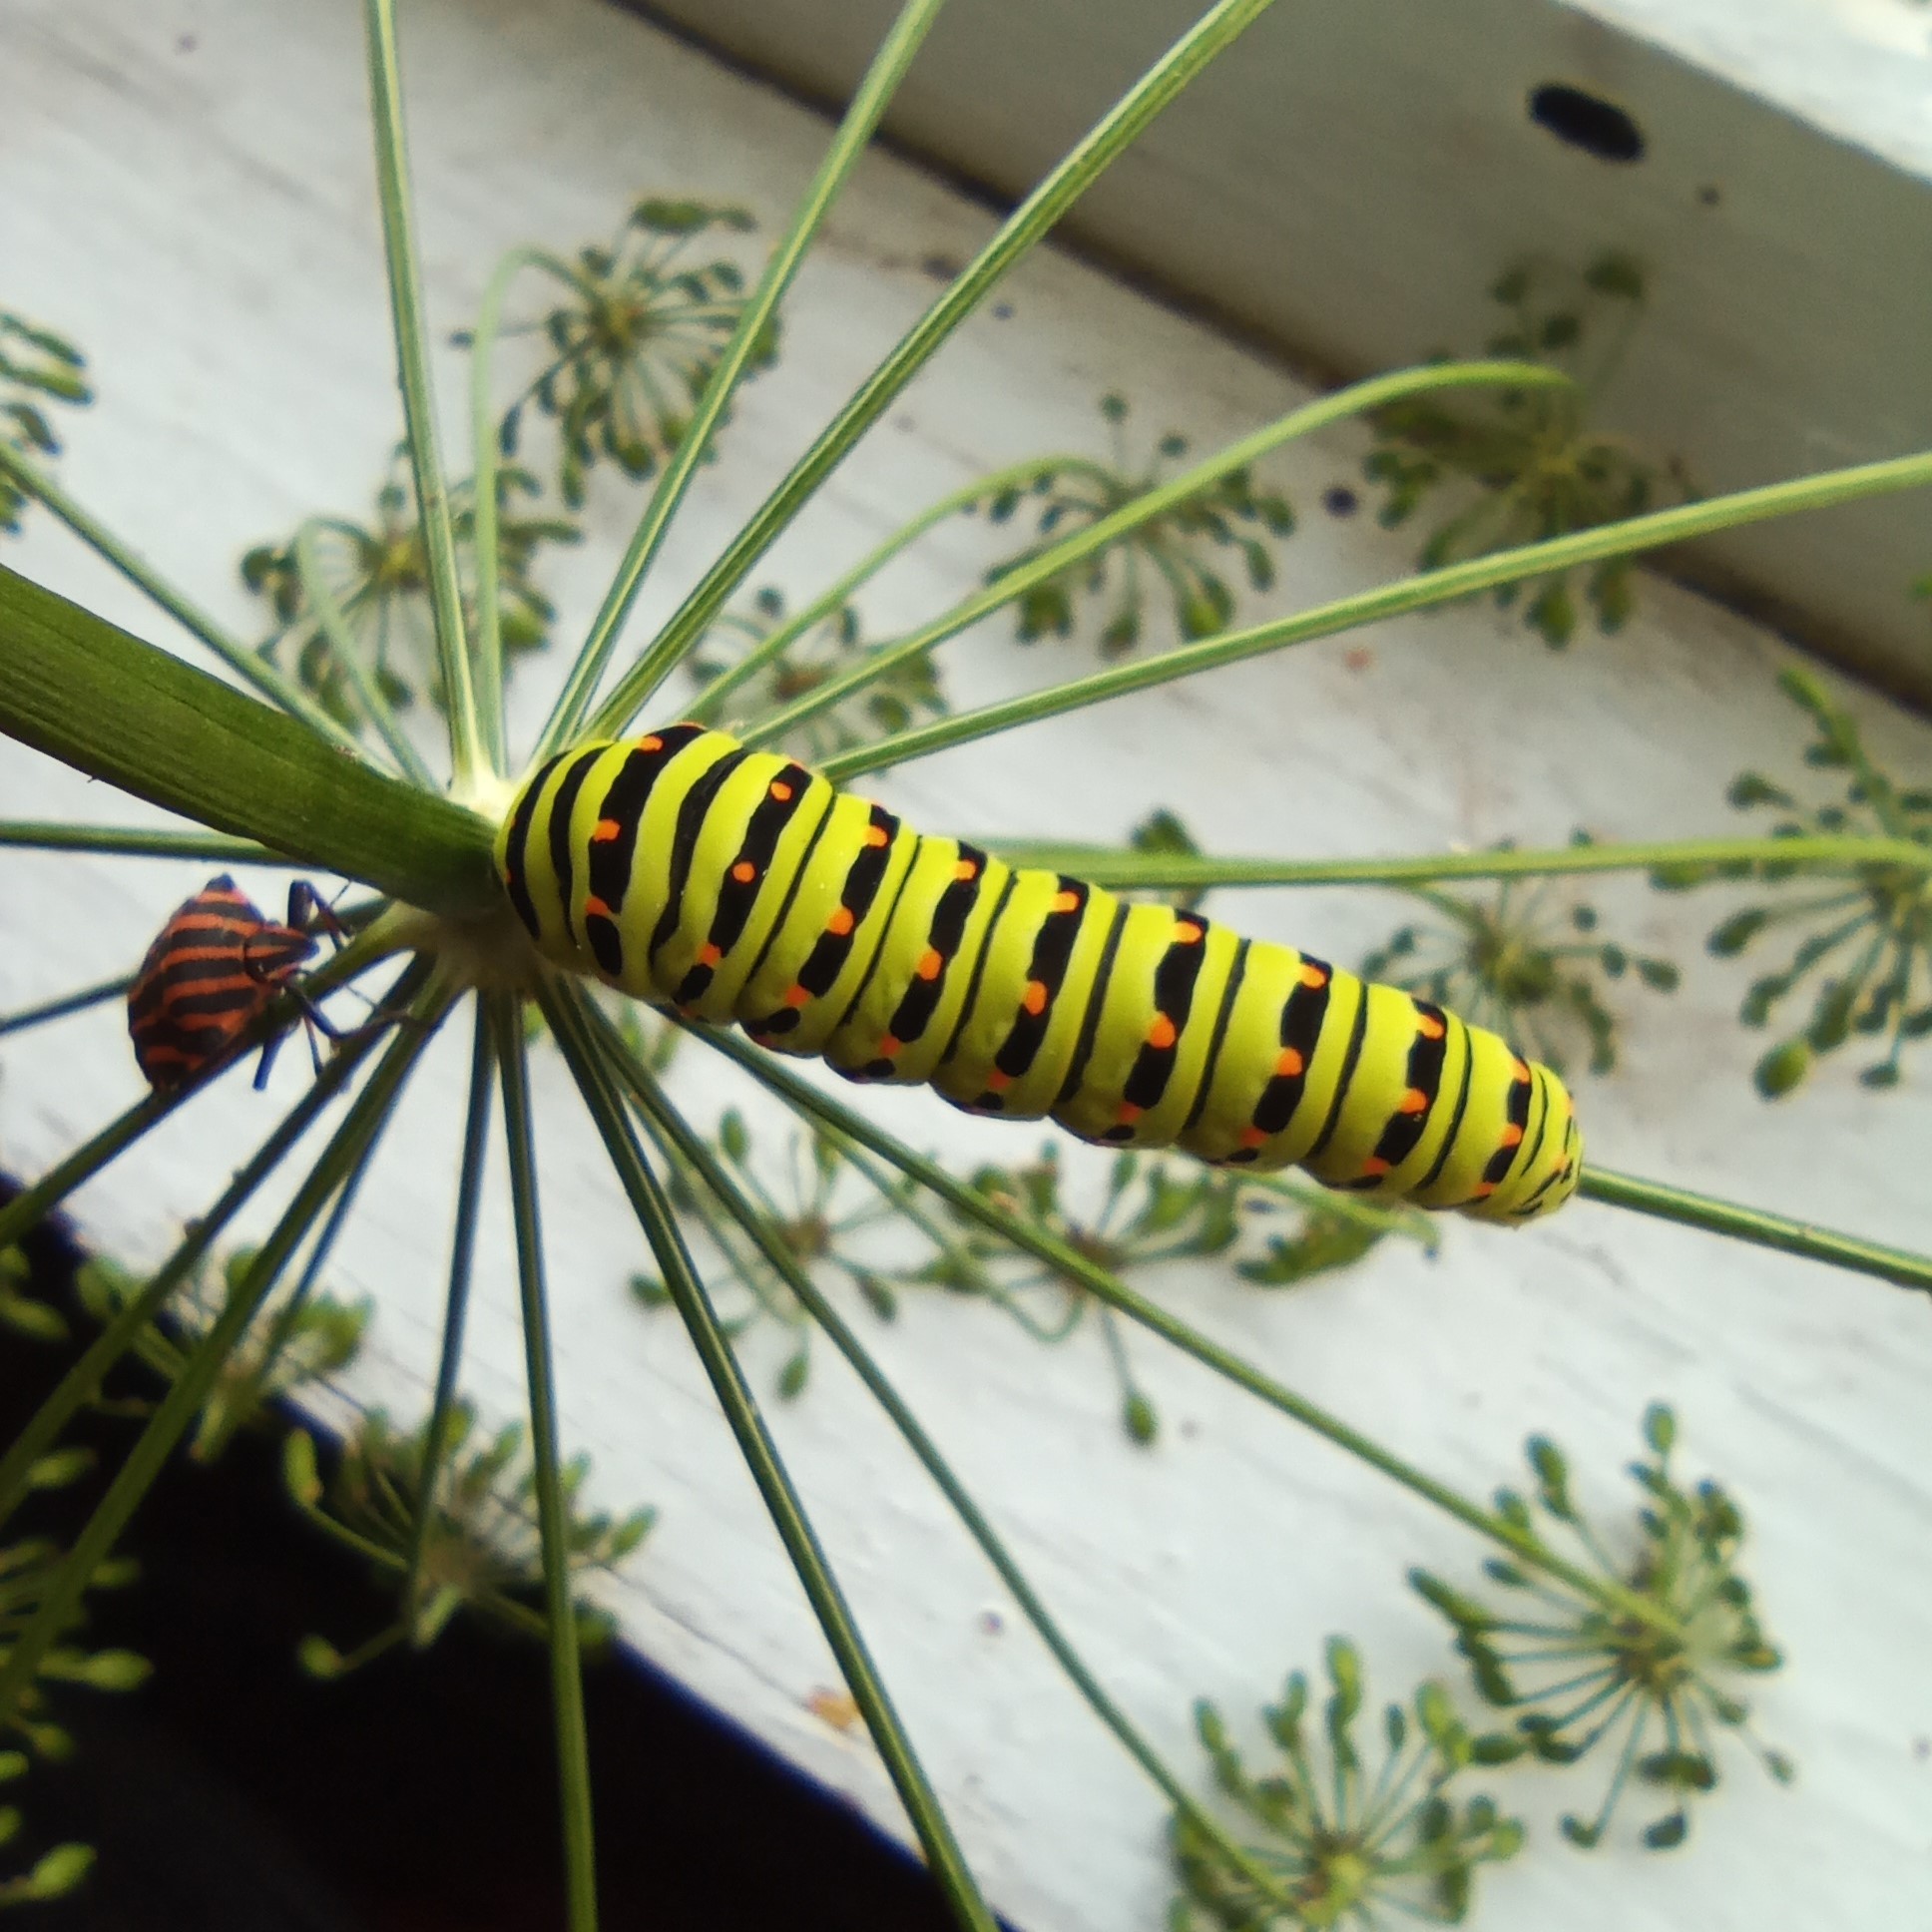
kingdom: Animalia
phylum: Arthropoda
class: Insecta
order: Lepidoptera
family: Papilionidae
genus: Papilio
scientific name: Papilio machaon
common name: Swallowtail
